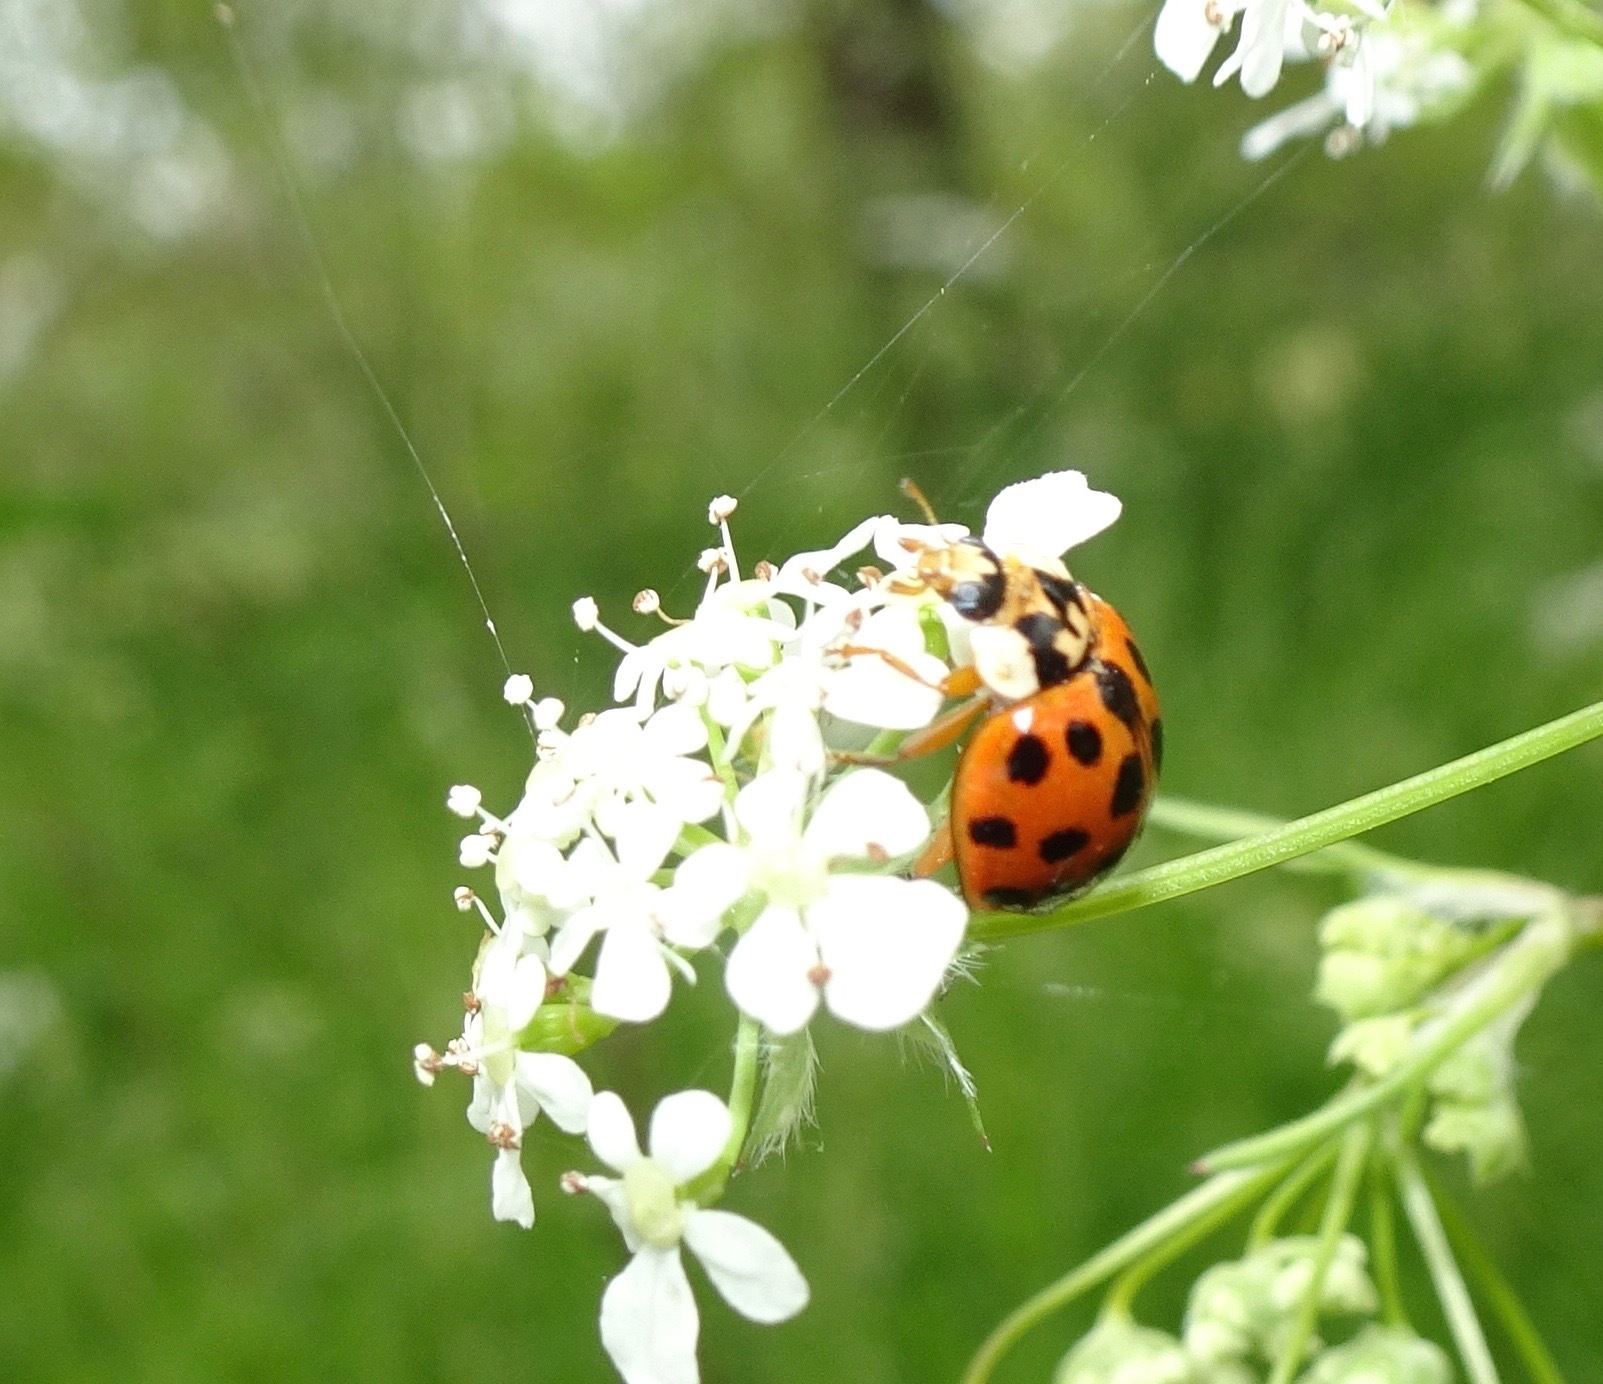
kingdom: Animalia
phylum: Arthropoda
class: Insecta
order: Coleoptera
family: Coccinellidae
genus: Harmonia
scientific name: Harmonia axyridis
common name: Harlequin ladybird
